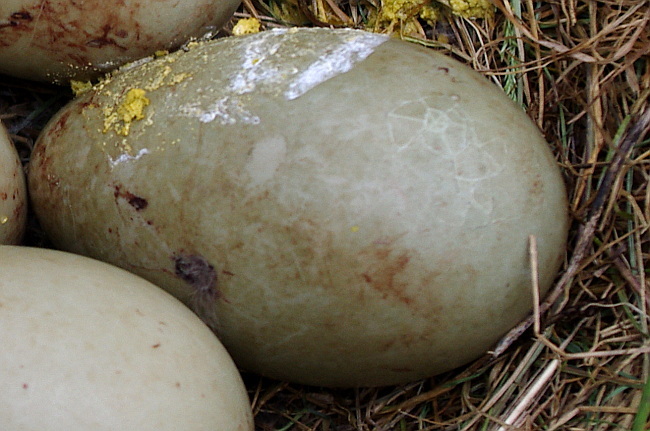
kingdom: Animalia
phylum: Chordata
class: Aves
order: Anseriformes
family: Anatidae
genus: Somateria
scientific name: Somateria mollissima
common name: Common eider
